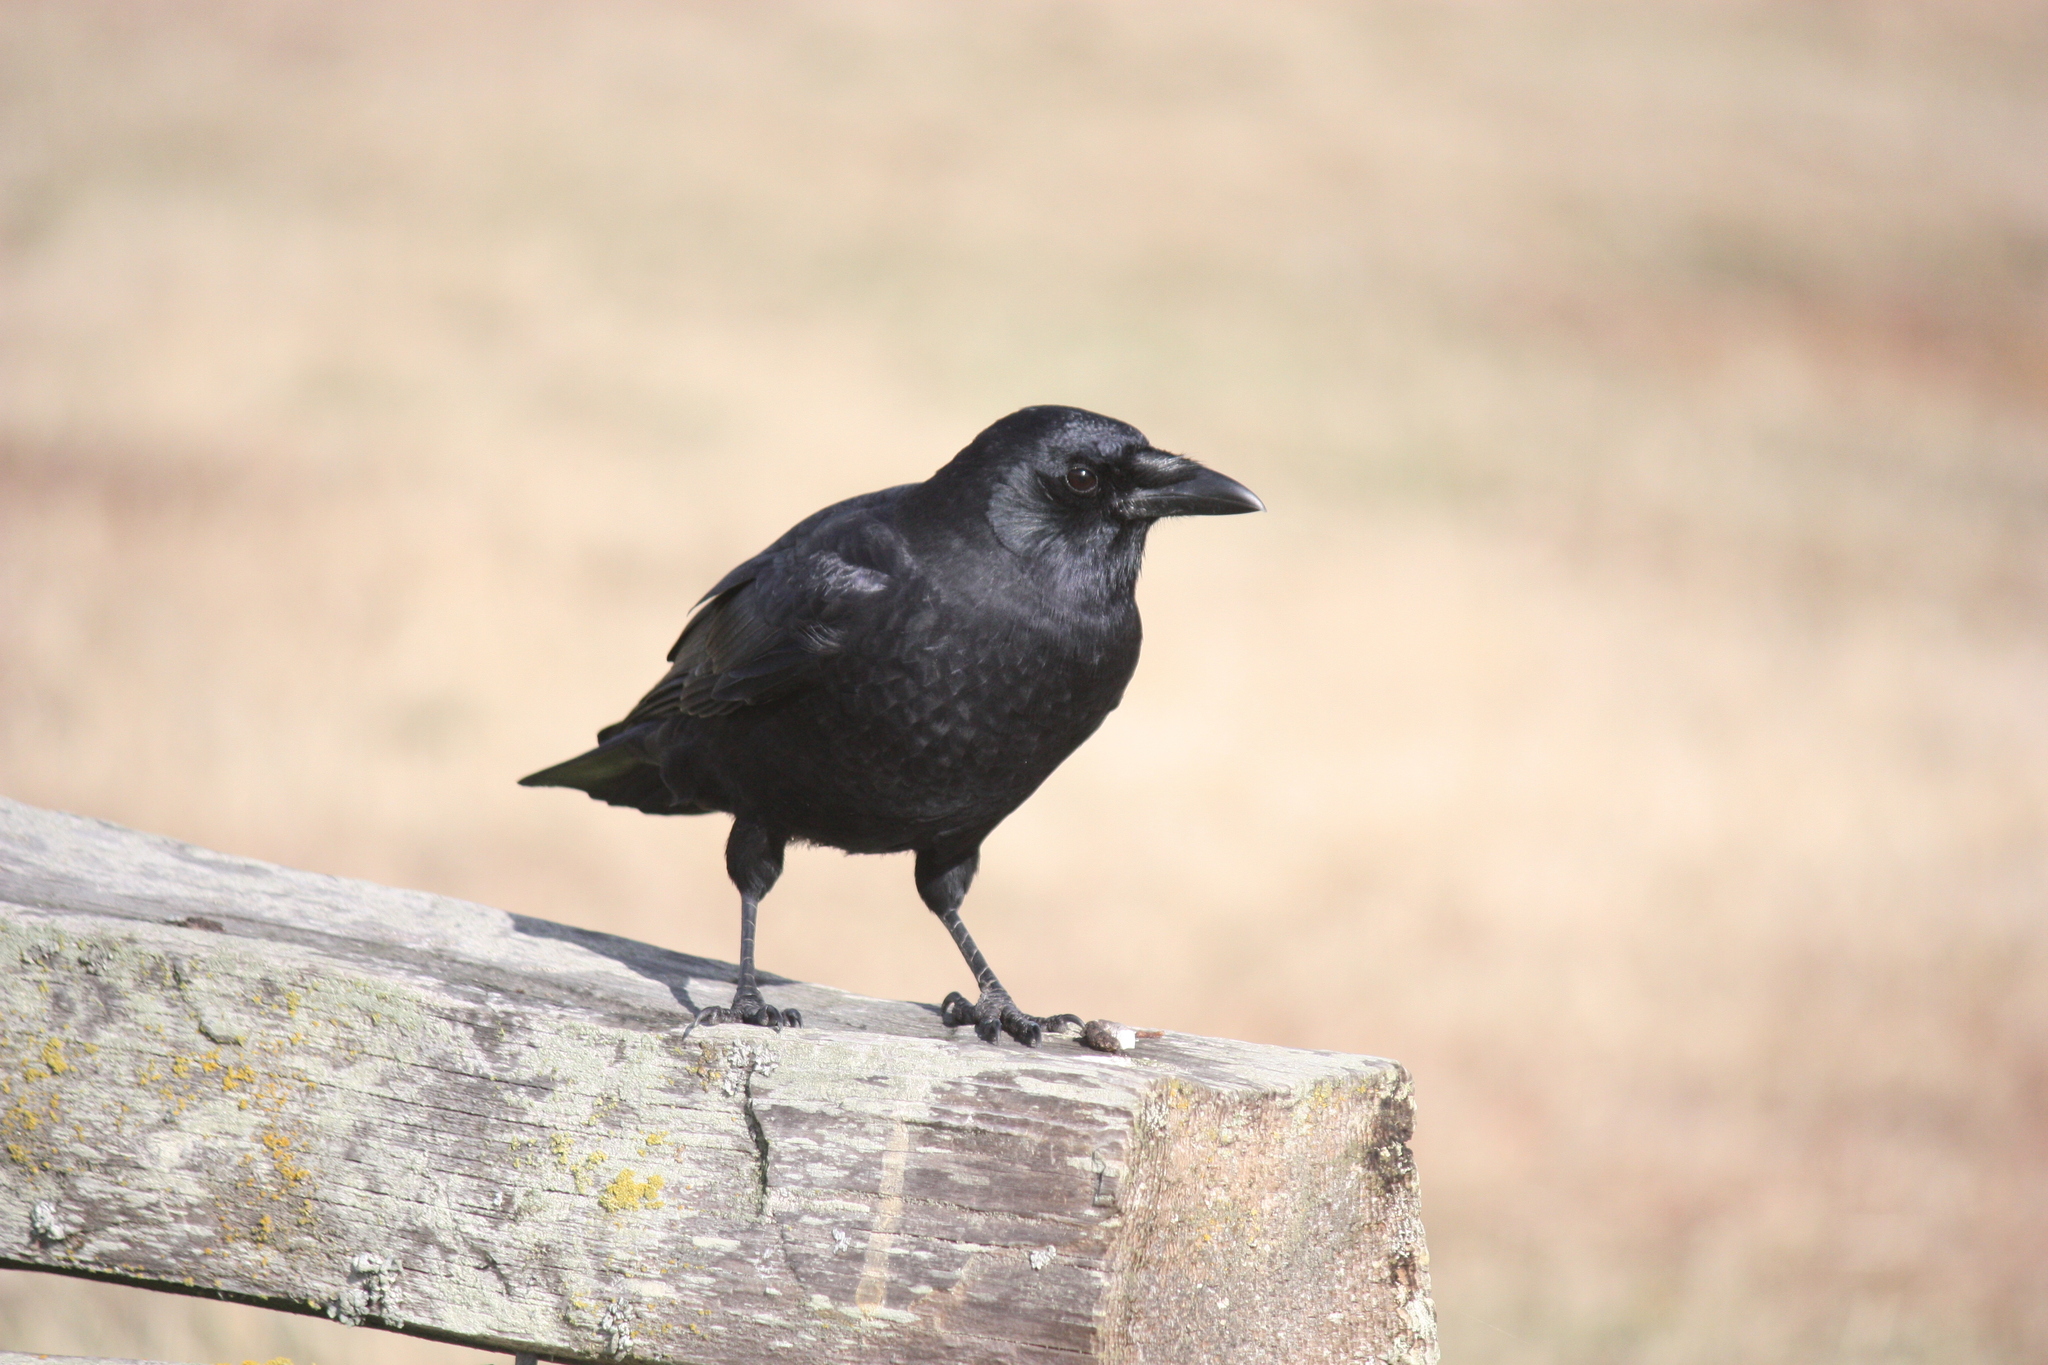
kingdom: Animalia
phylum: Chordata
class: Aves
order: Passeriformes
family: Corvidae
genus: Corvus
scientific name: Corvus brachyrhynchos
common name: American crow
